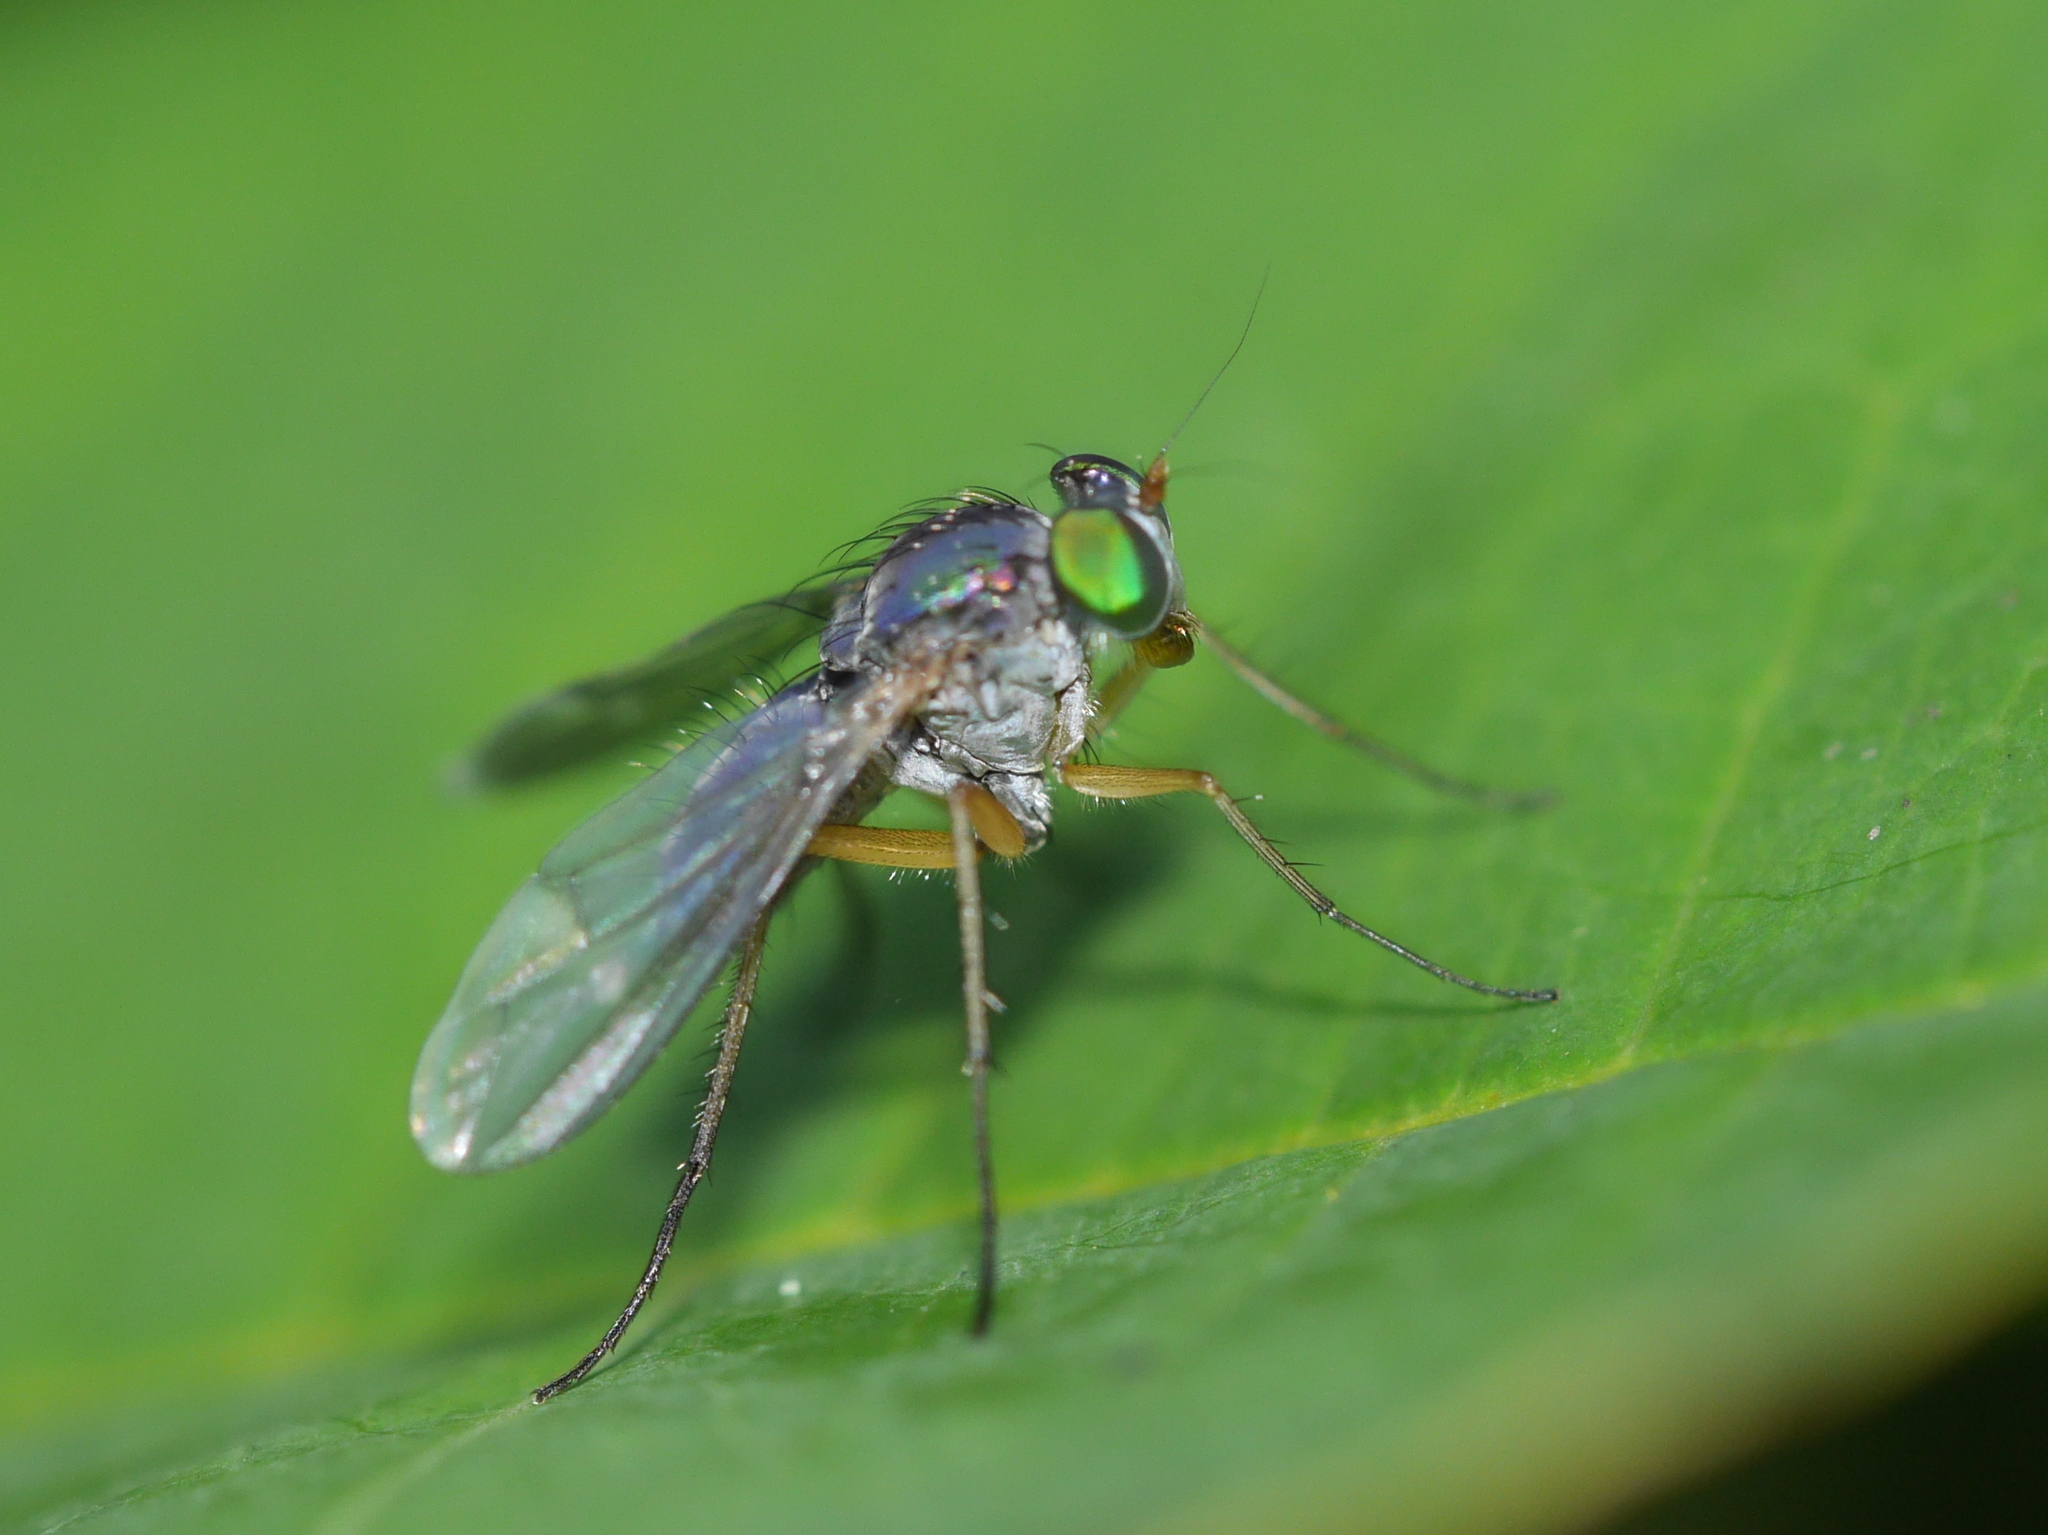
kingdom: Animalia
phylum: Arthropoda
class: Insecta
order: Diptera
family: Dolichopodidae
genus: Chrysosoma
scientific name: Chrysosoma globifer
